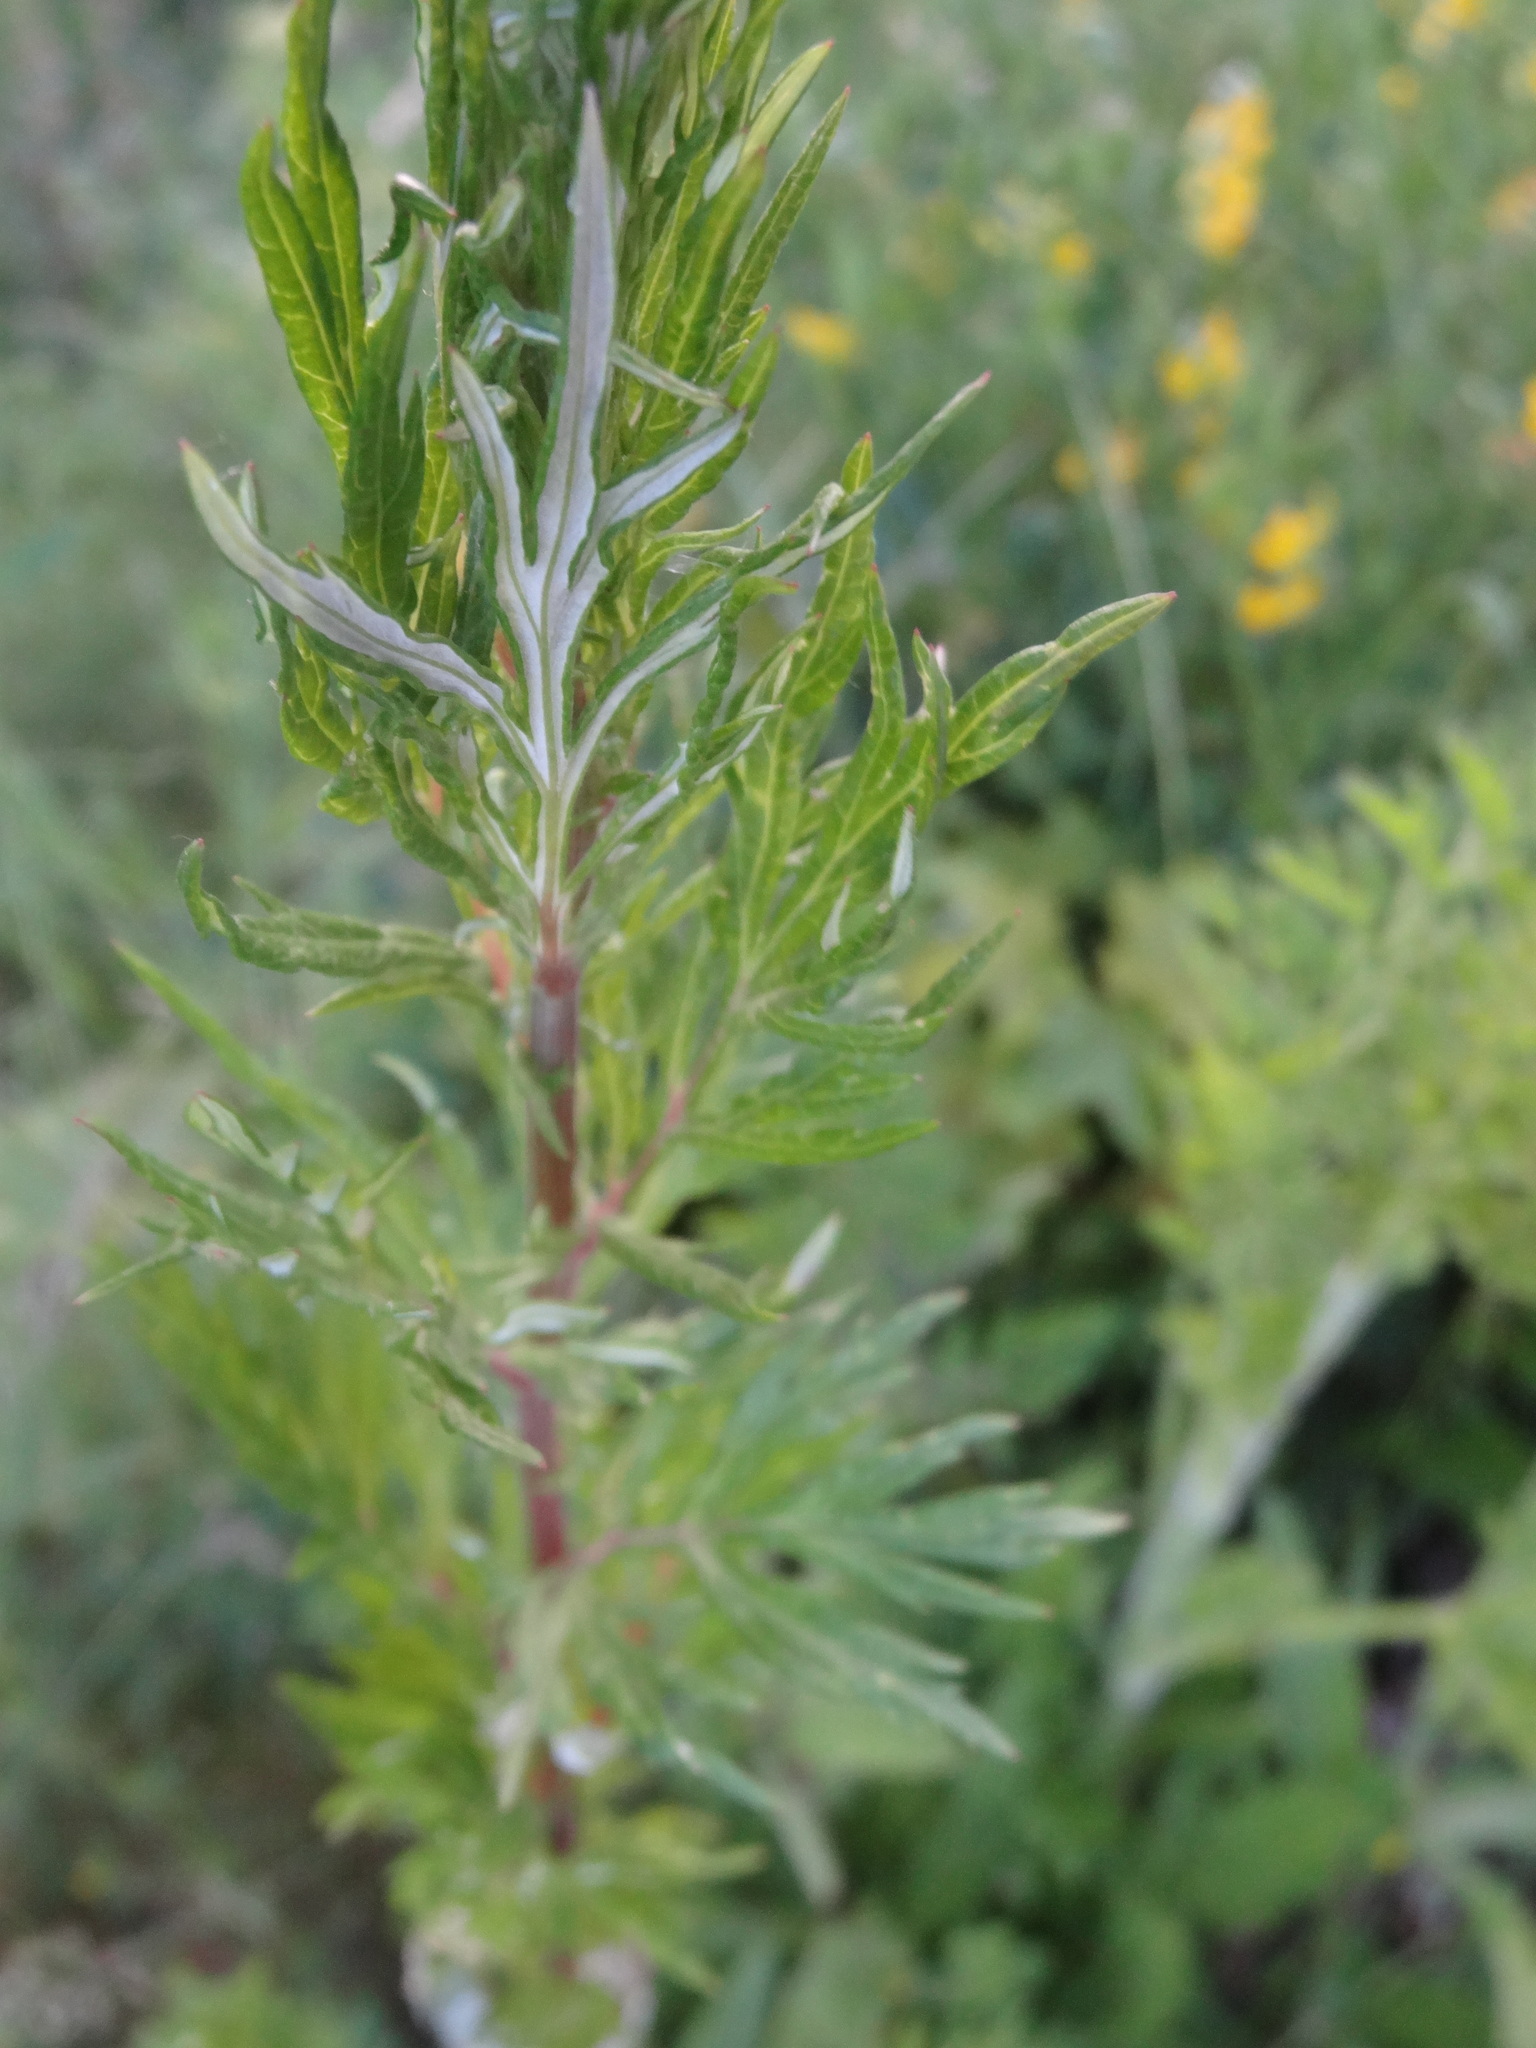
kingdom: Plantae
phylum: Tracheophyta
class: Magnoliopsida
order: Asterales
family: Asteraceae
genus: Artemisia
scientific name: Artemisia vulgaris
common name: Mugwort
